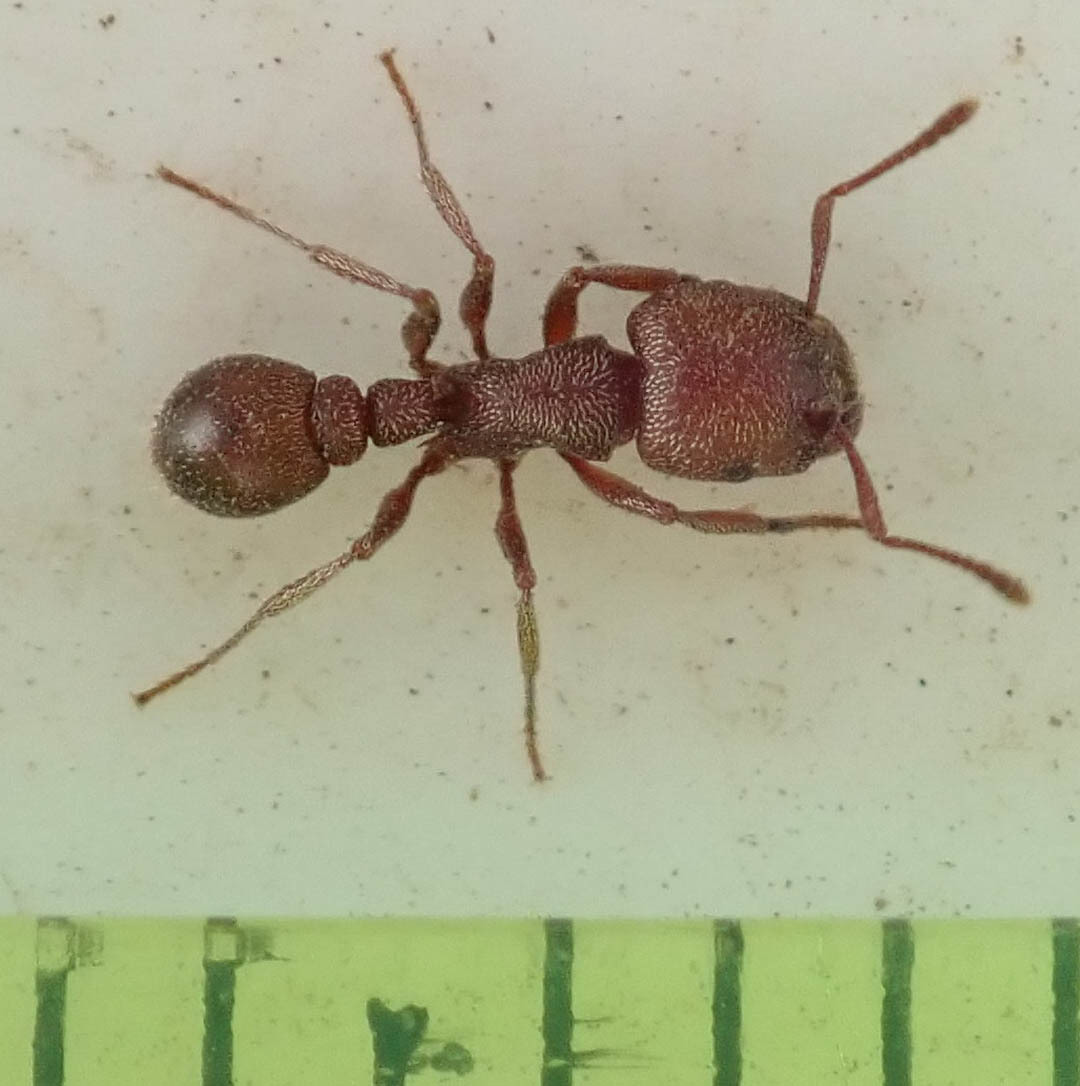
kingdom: Animalia
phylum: Arthropoda
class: Insecta
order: Hymenoptera
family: Formicidae
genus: Tetramorium
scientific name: Tetramorium setuliferum
